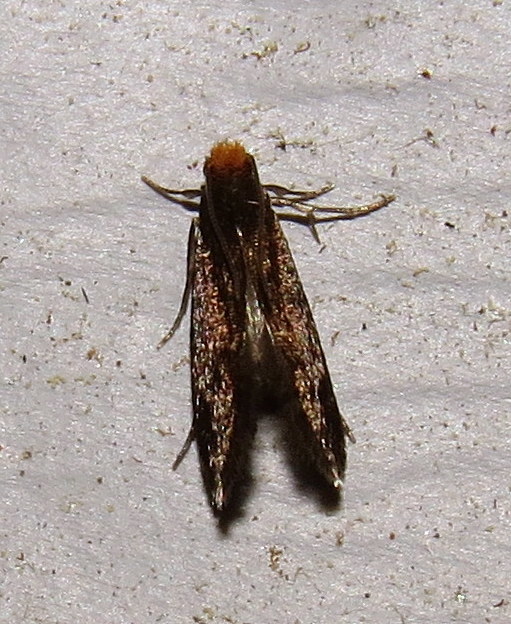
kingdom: Animalia
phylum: Arthropoda
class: Insecta
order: Lepidoptera
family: Meessiidae
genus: Doleromorpha
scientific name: Doleromorpha porphyria
